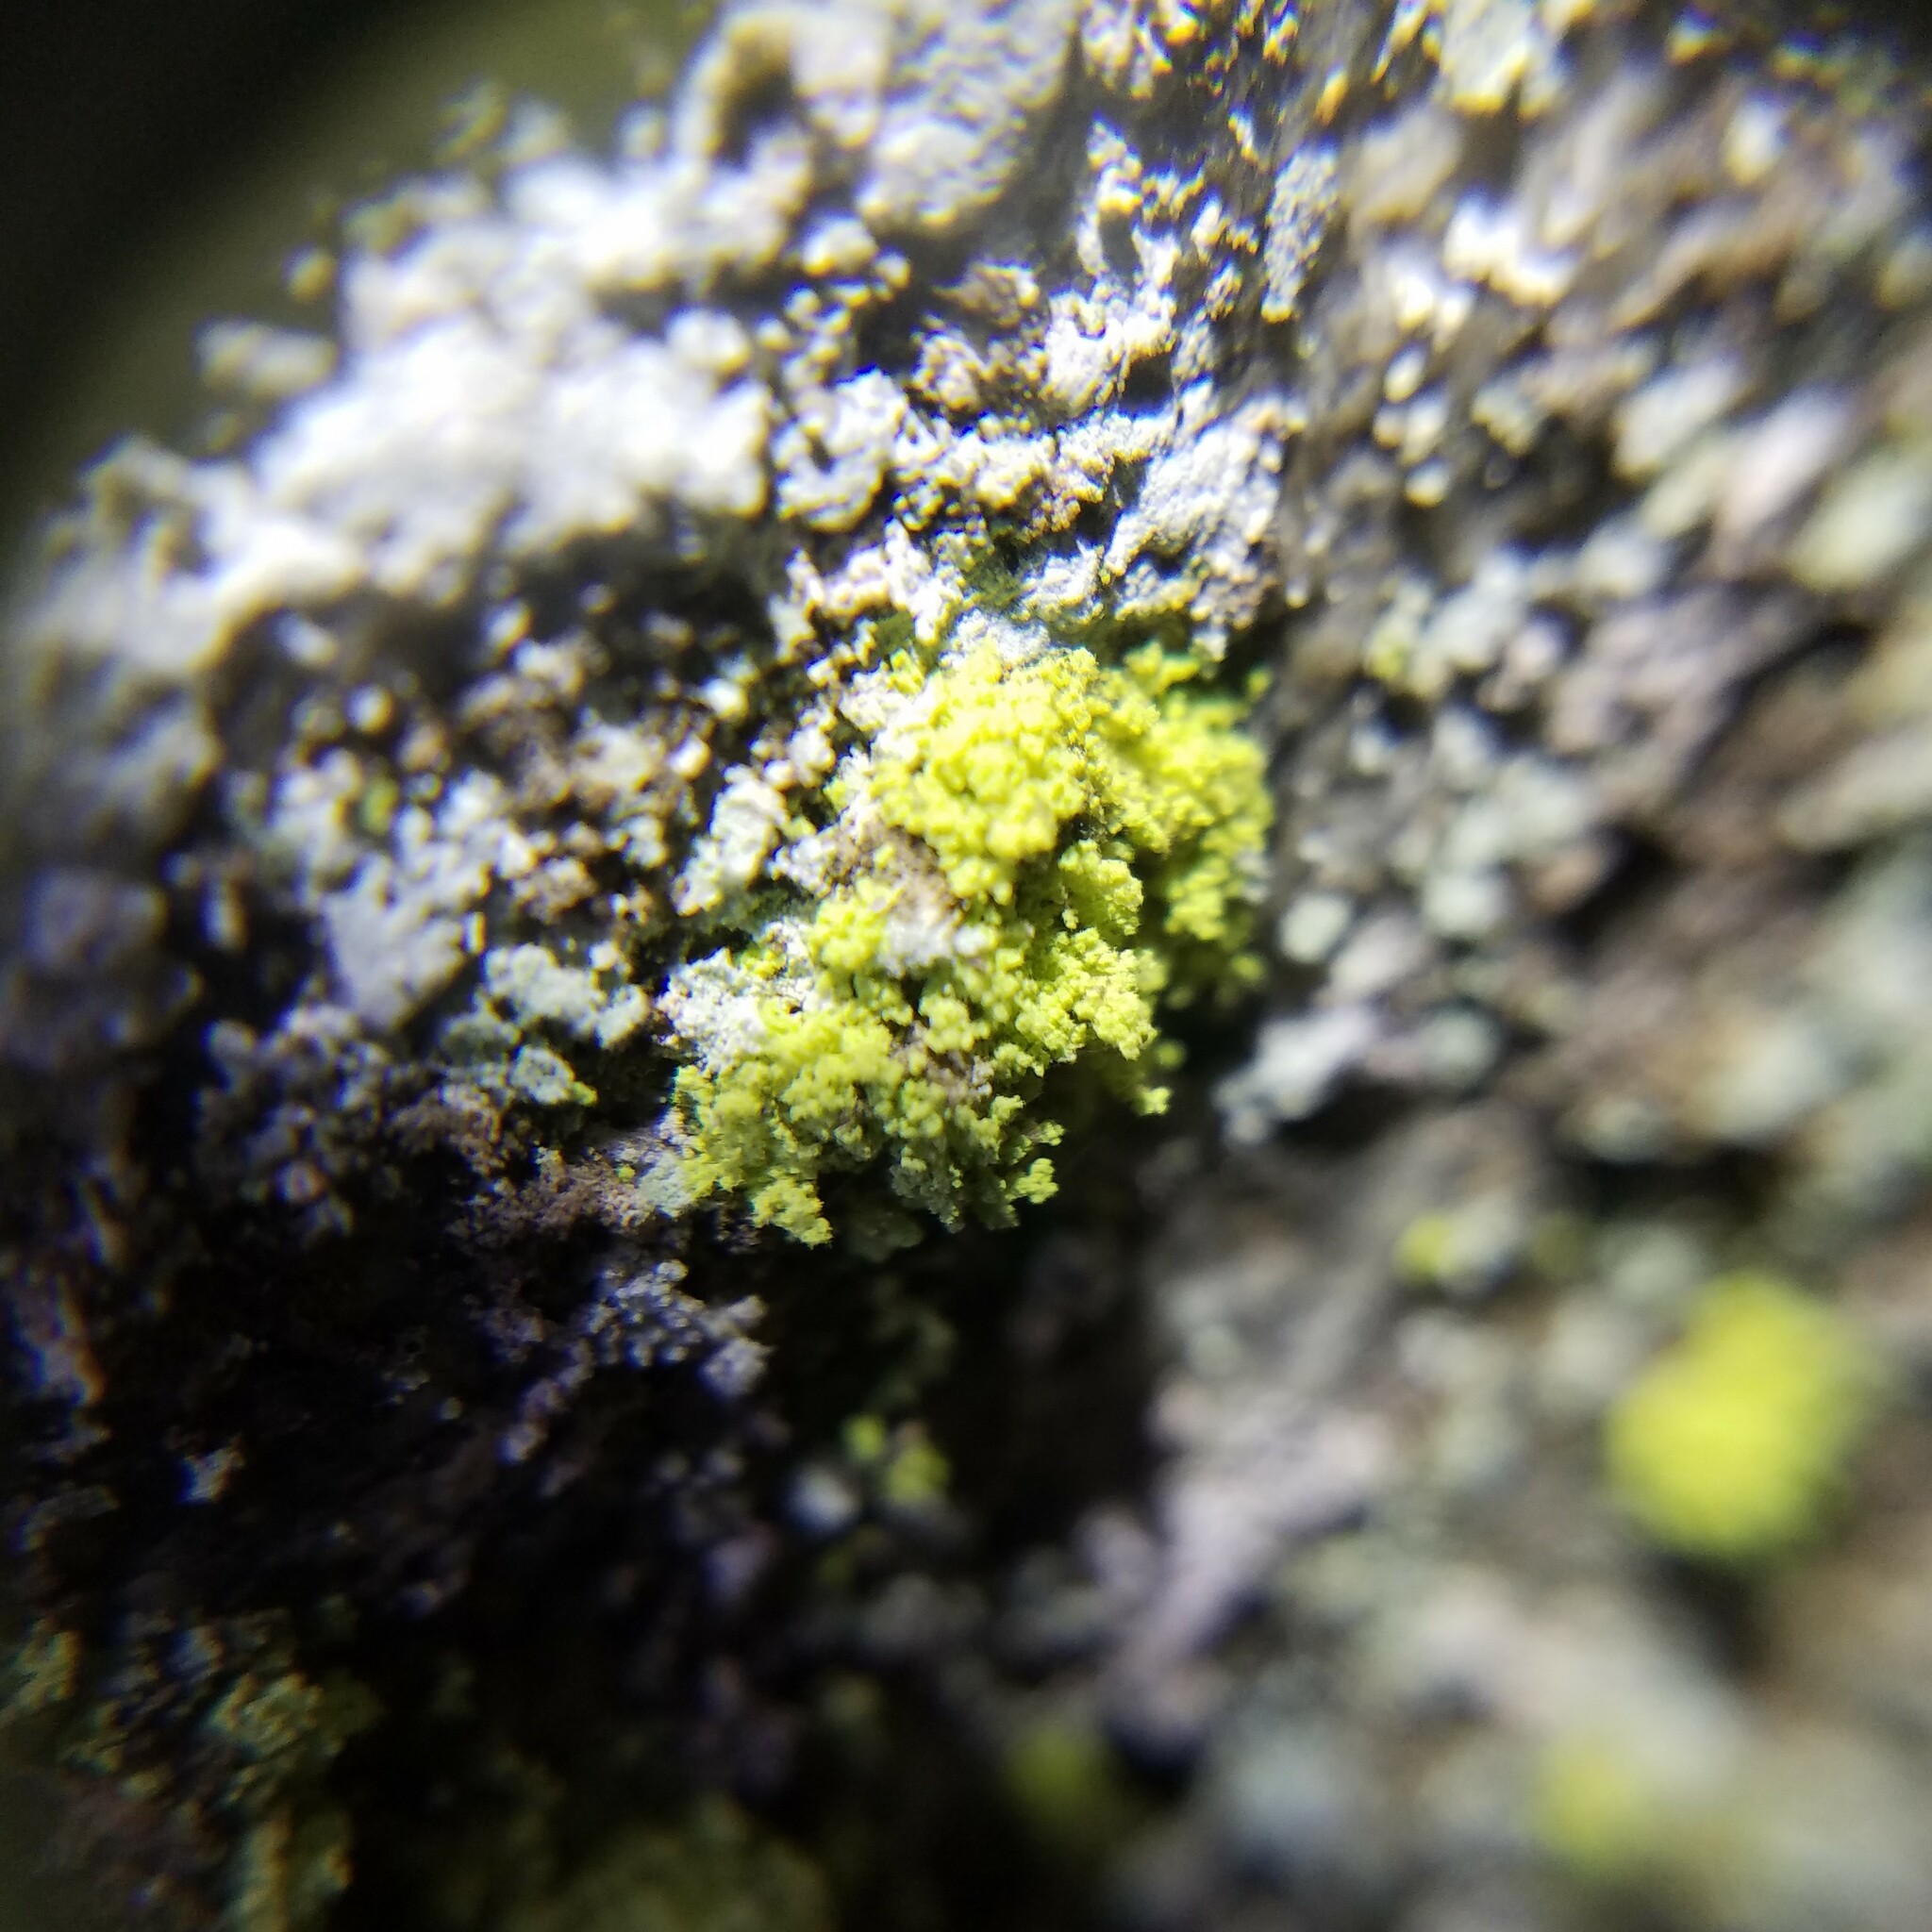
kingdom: Fungi
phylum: Ascomycota
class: Lecanoromycetes
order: Lecanorales
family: Psilolechiaceae
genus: Psilolechia
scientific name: Psilolechia lucida
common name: Sulphur dust lichen
